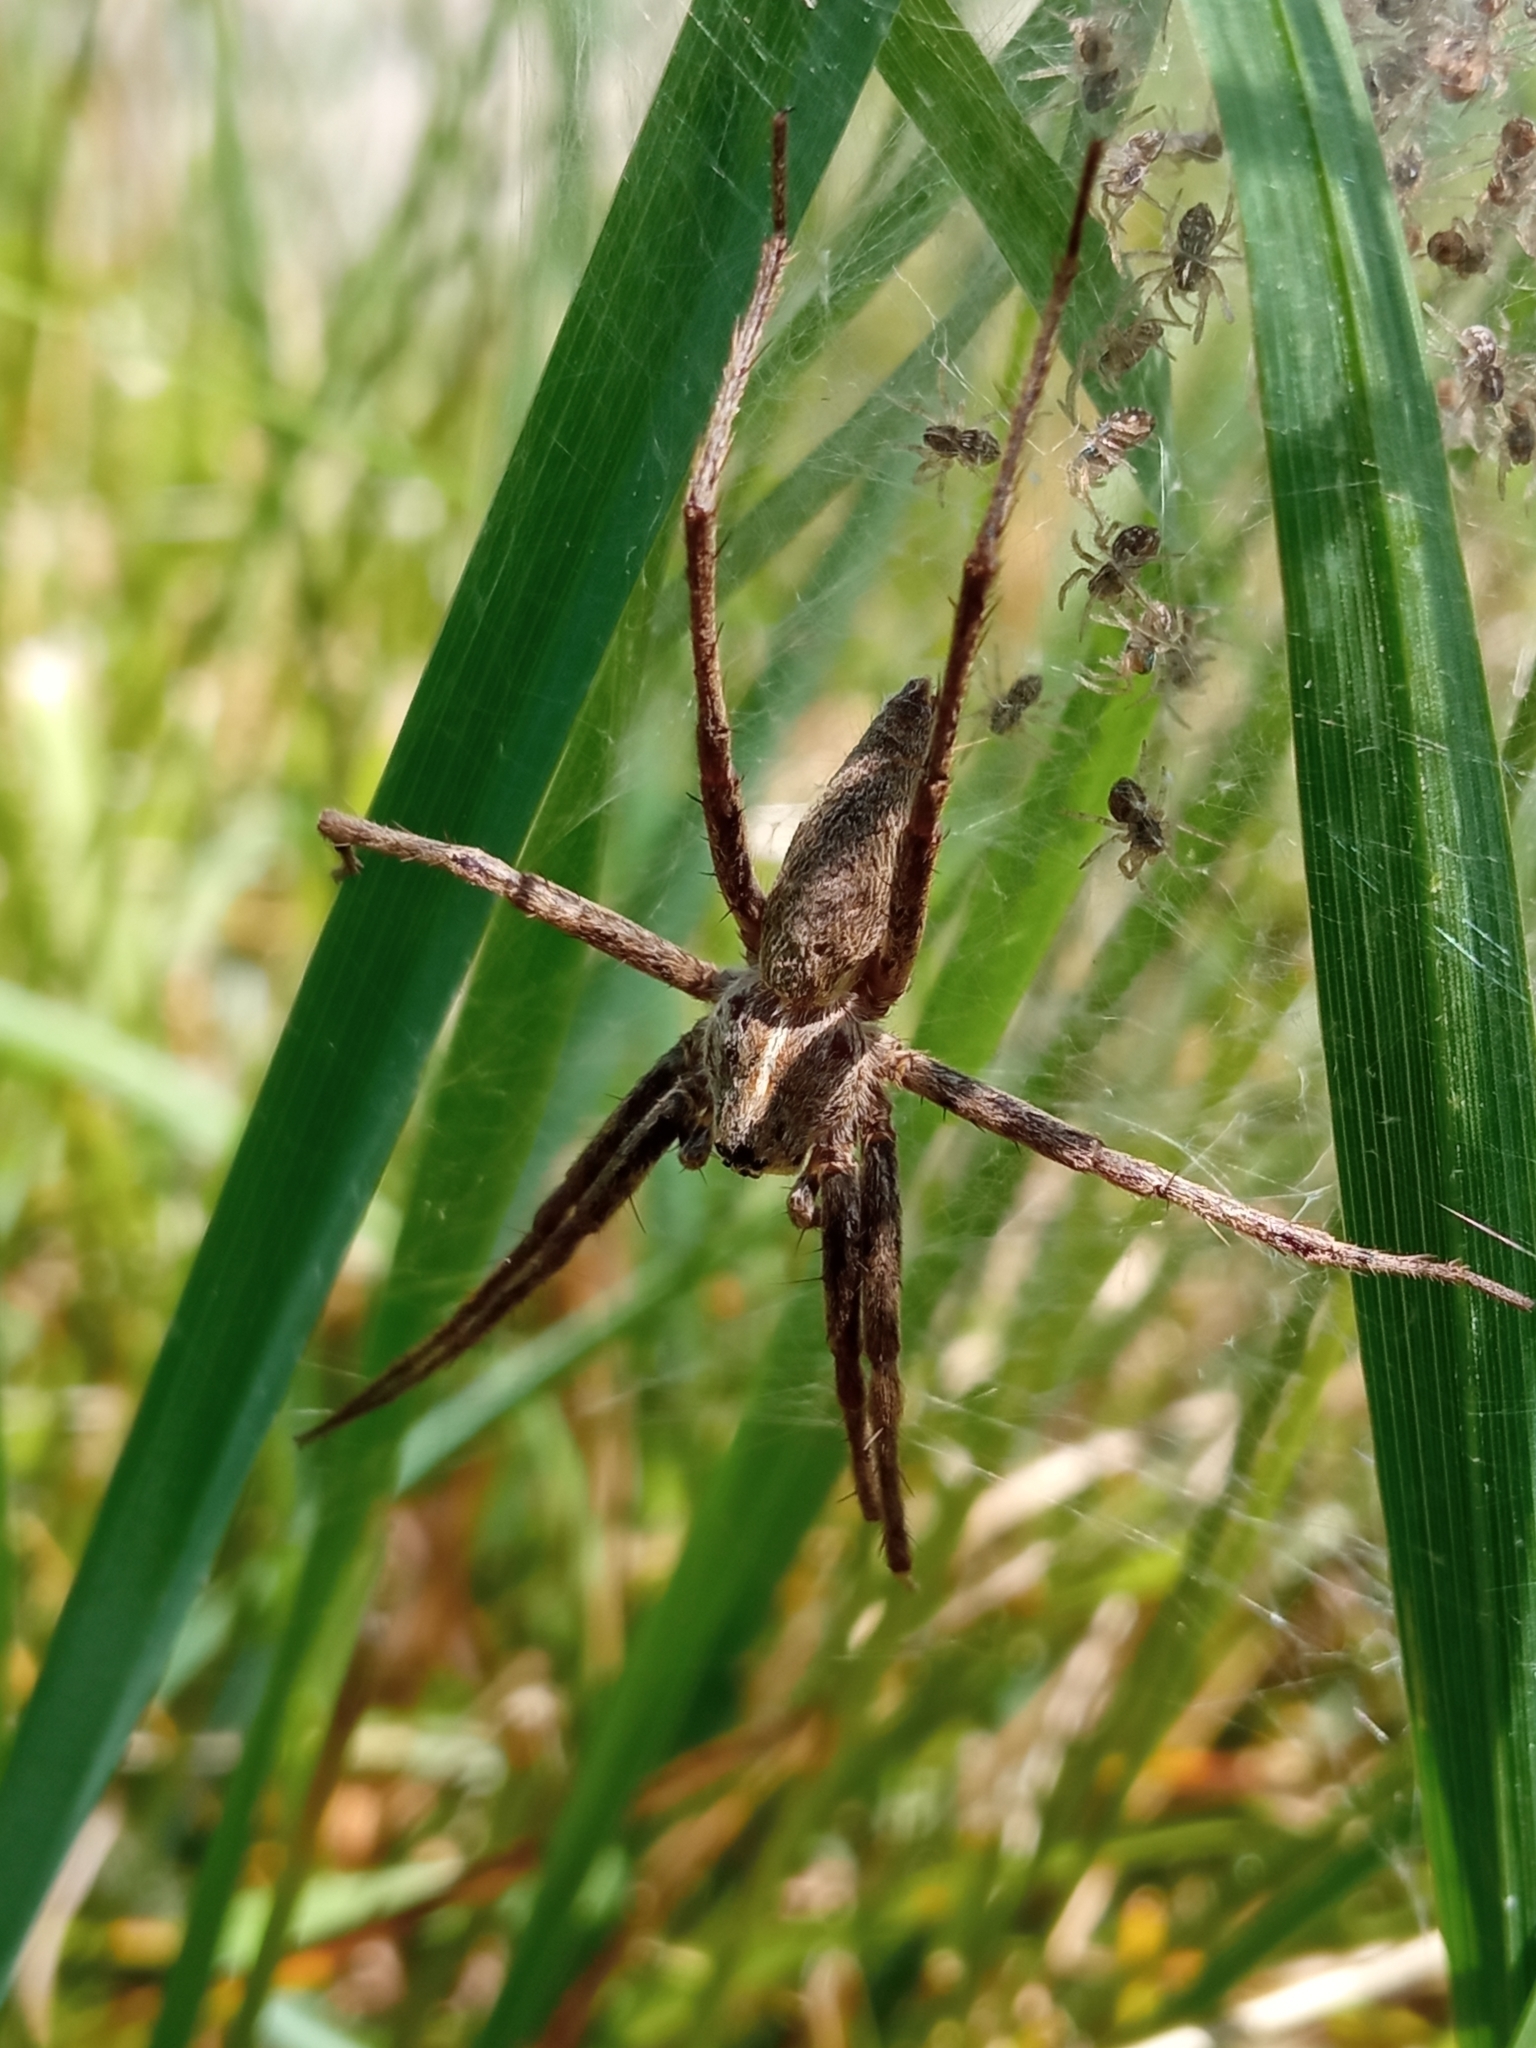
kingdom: Animalia
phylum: Arthropoda
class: Arachnida
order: Araneae
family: Pisauridae
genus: Pisaura
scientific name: Pisaura mirabilis
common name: Tent spider
